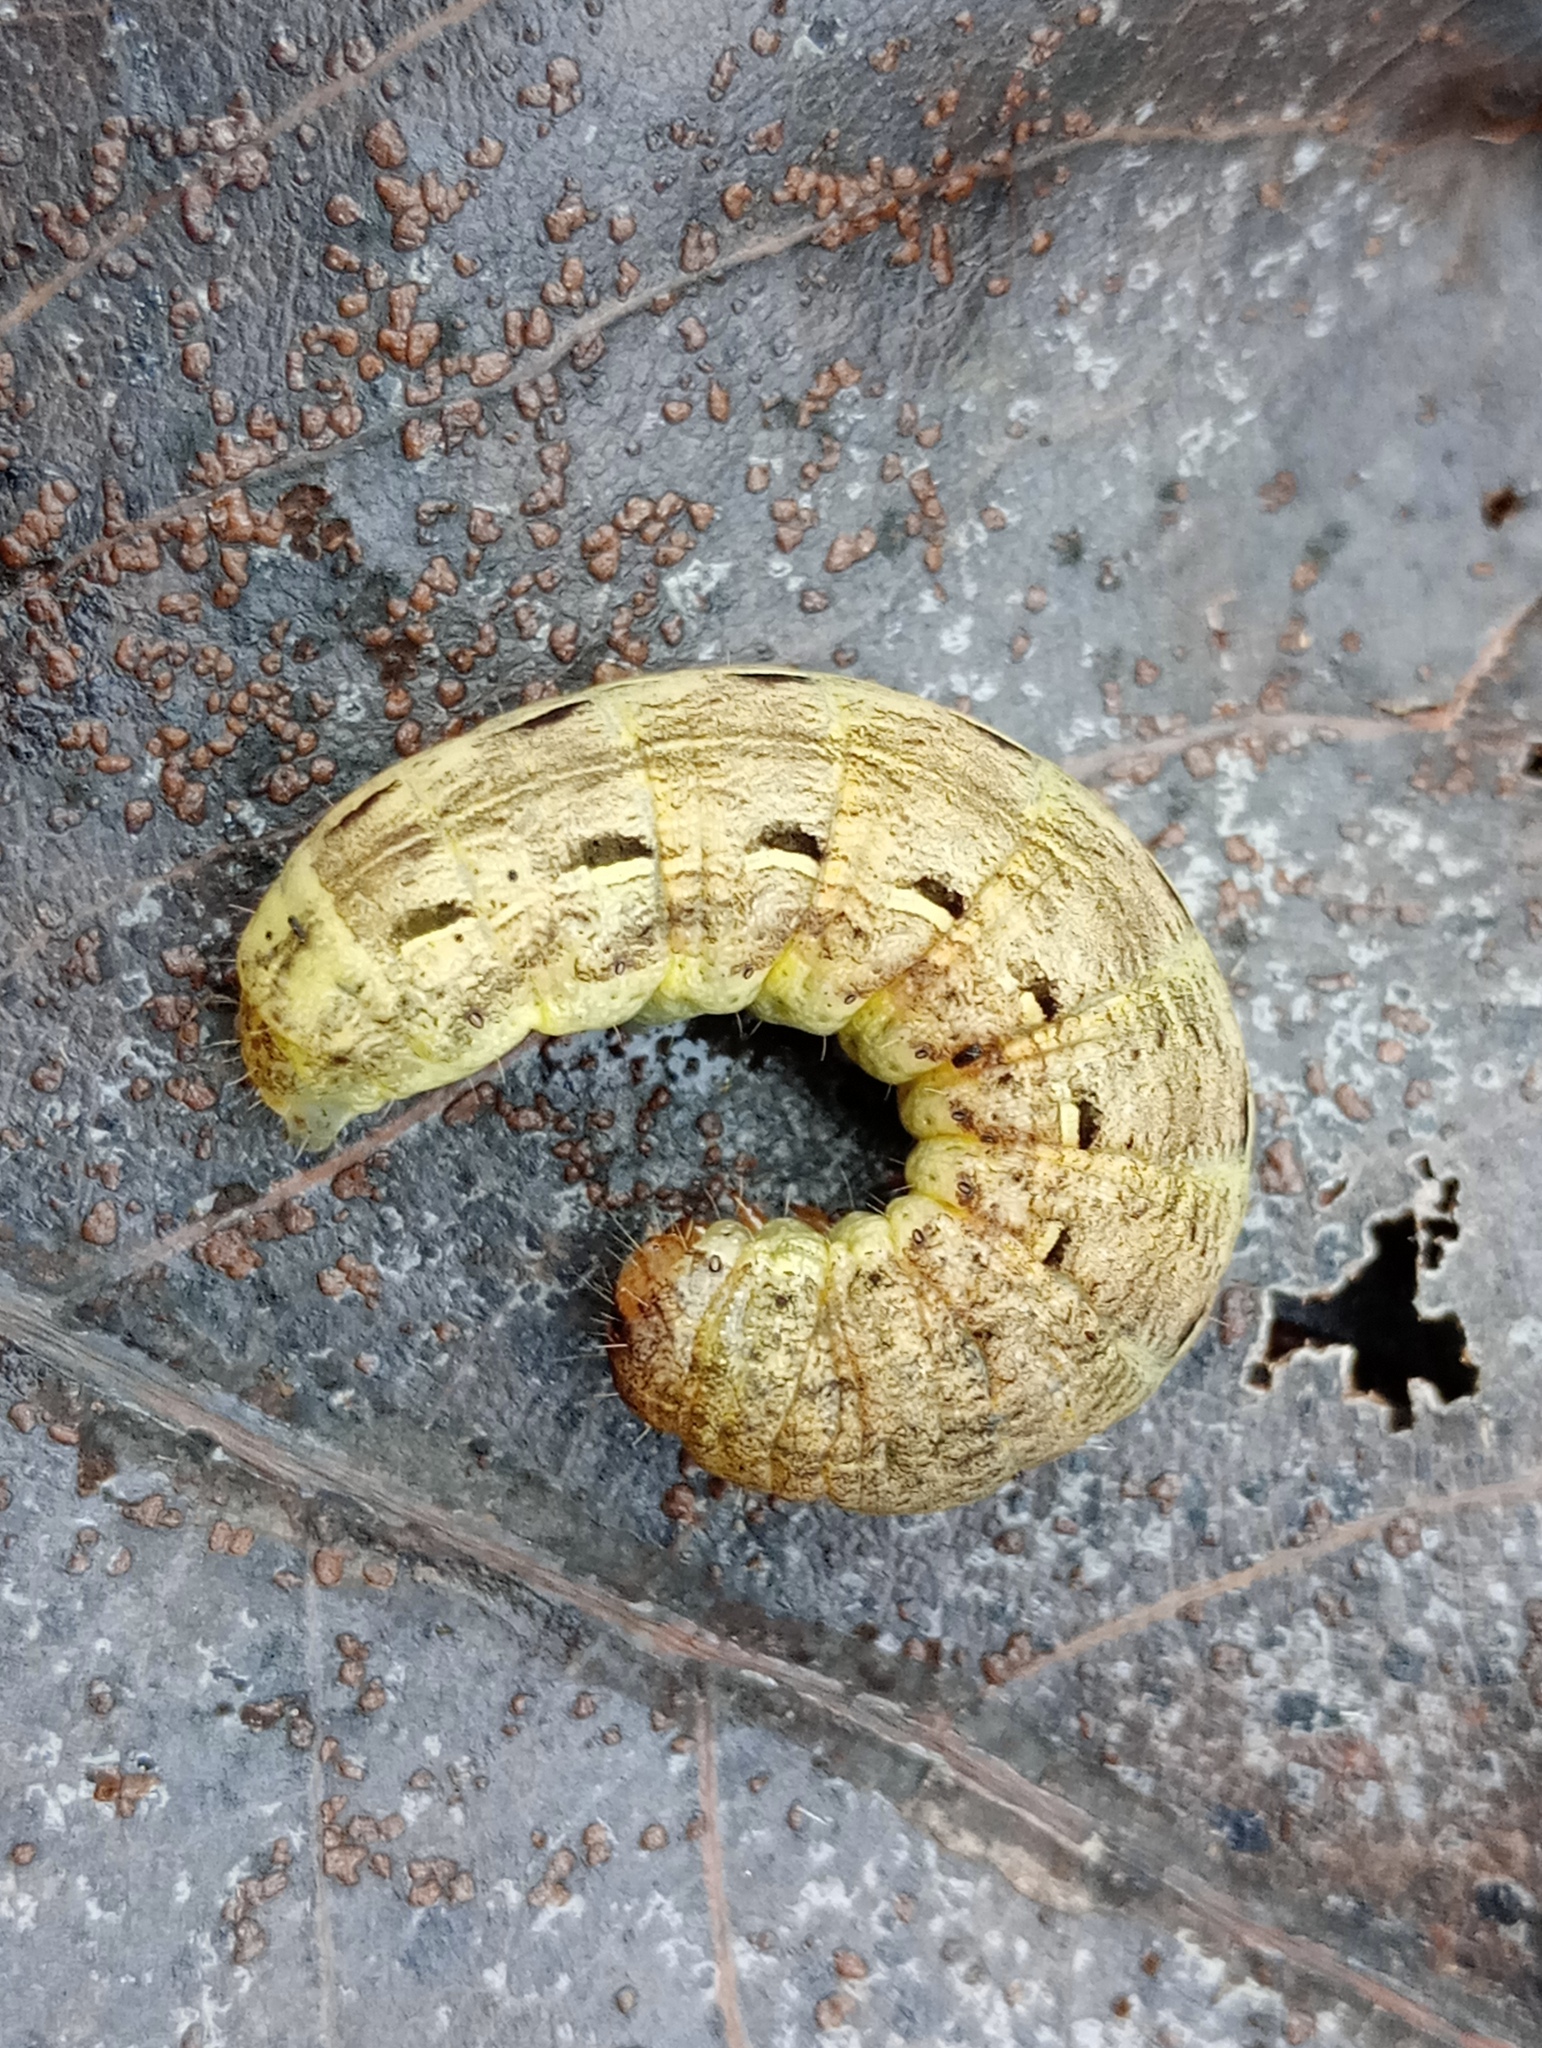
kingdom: Animalia
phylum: Arthropoda
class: Insecta
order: Lepidoptera
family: Noctuidae
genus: Noctua
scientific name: Noctua pronuba
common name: Large yellow underwing
